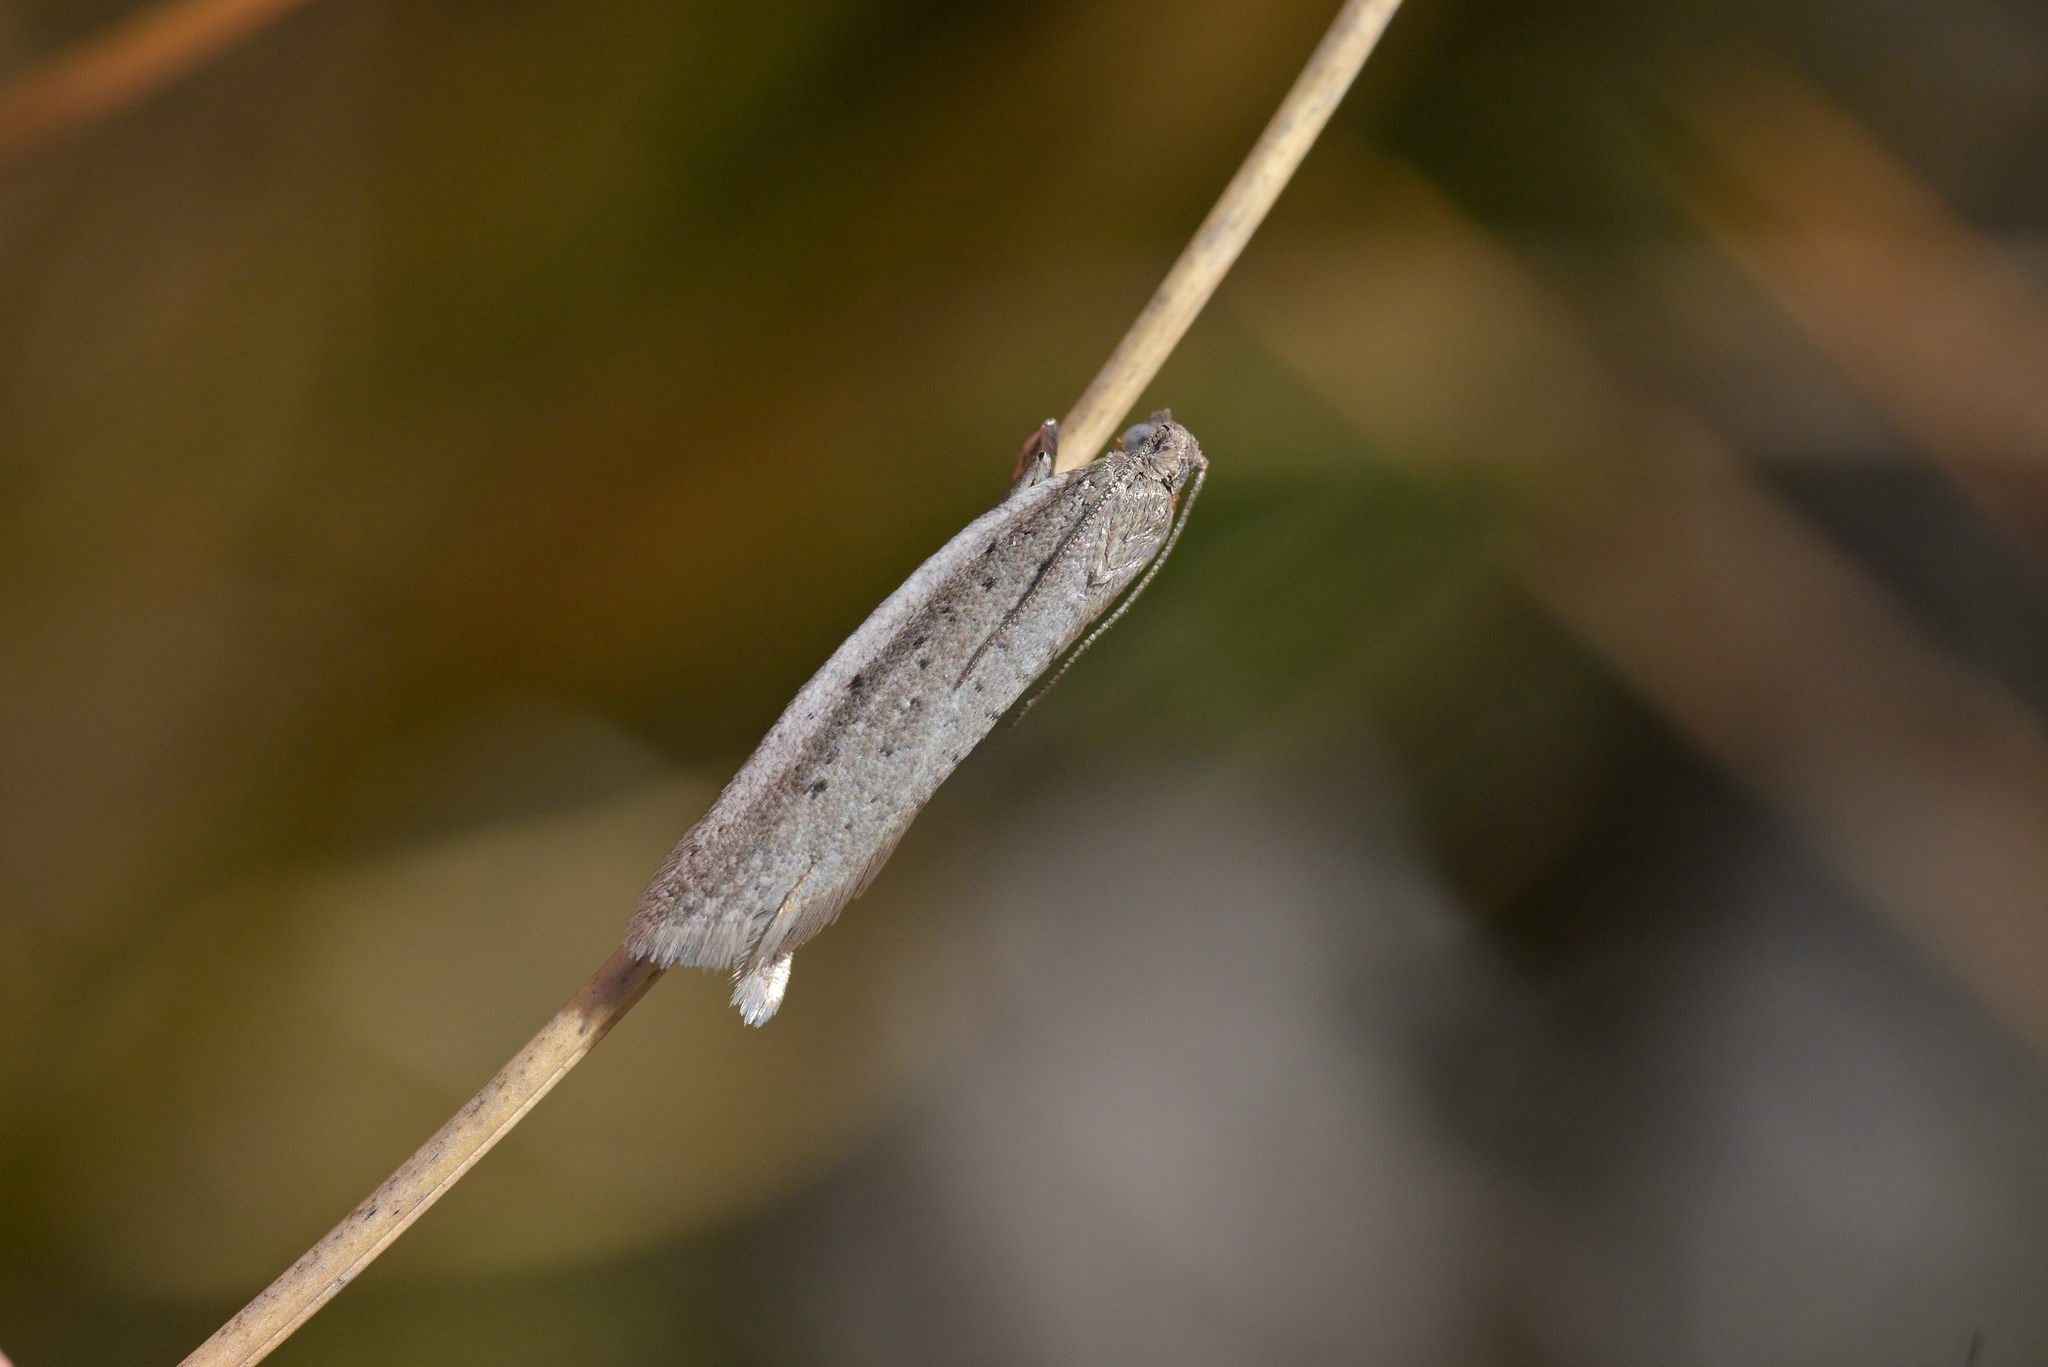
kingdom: Animalia
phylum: Arthropoda
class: Insecta
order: Lepidoptera
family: Tortricidae
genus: Ericodesma
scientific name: Ericodesma argentosa
